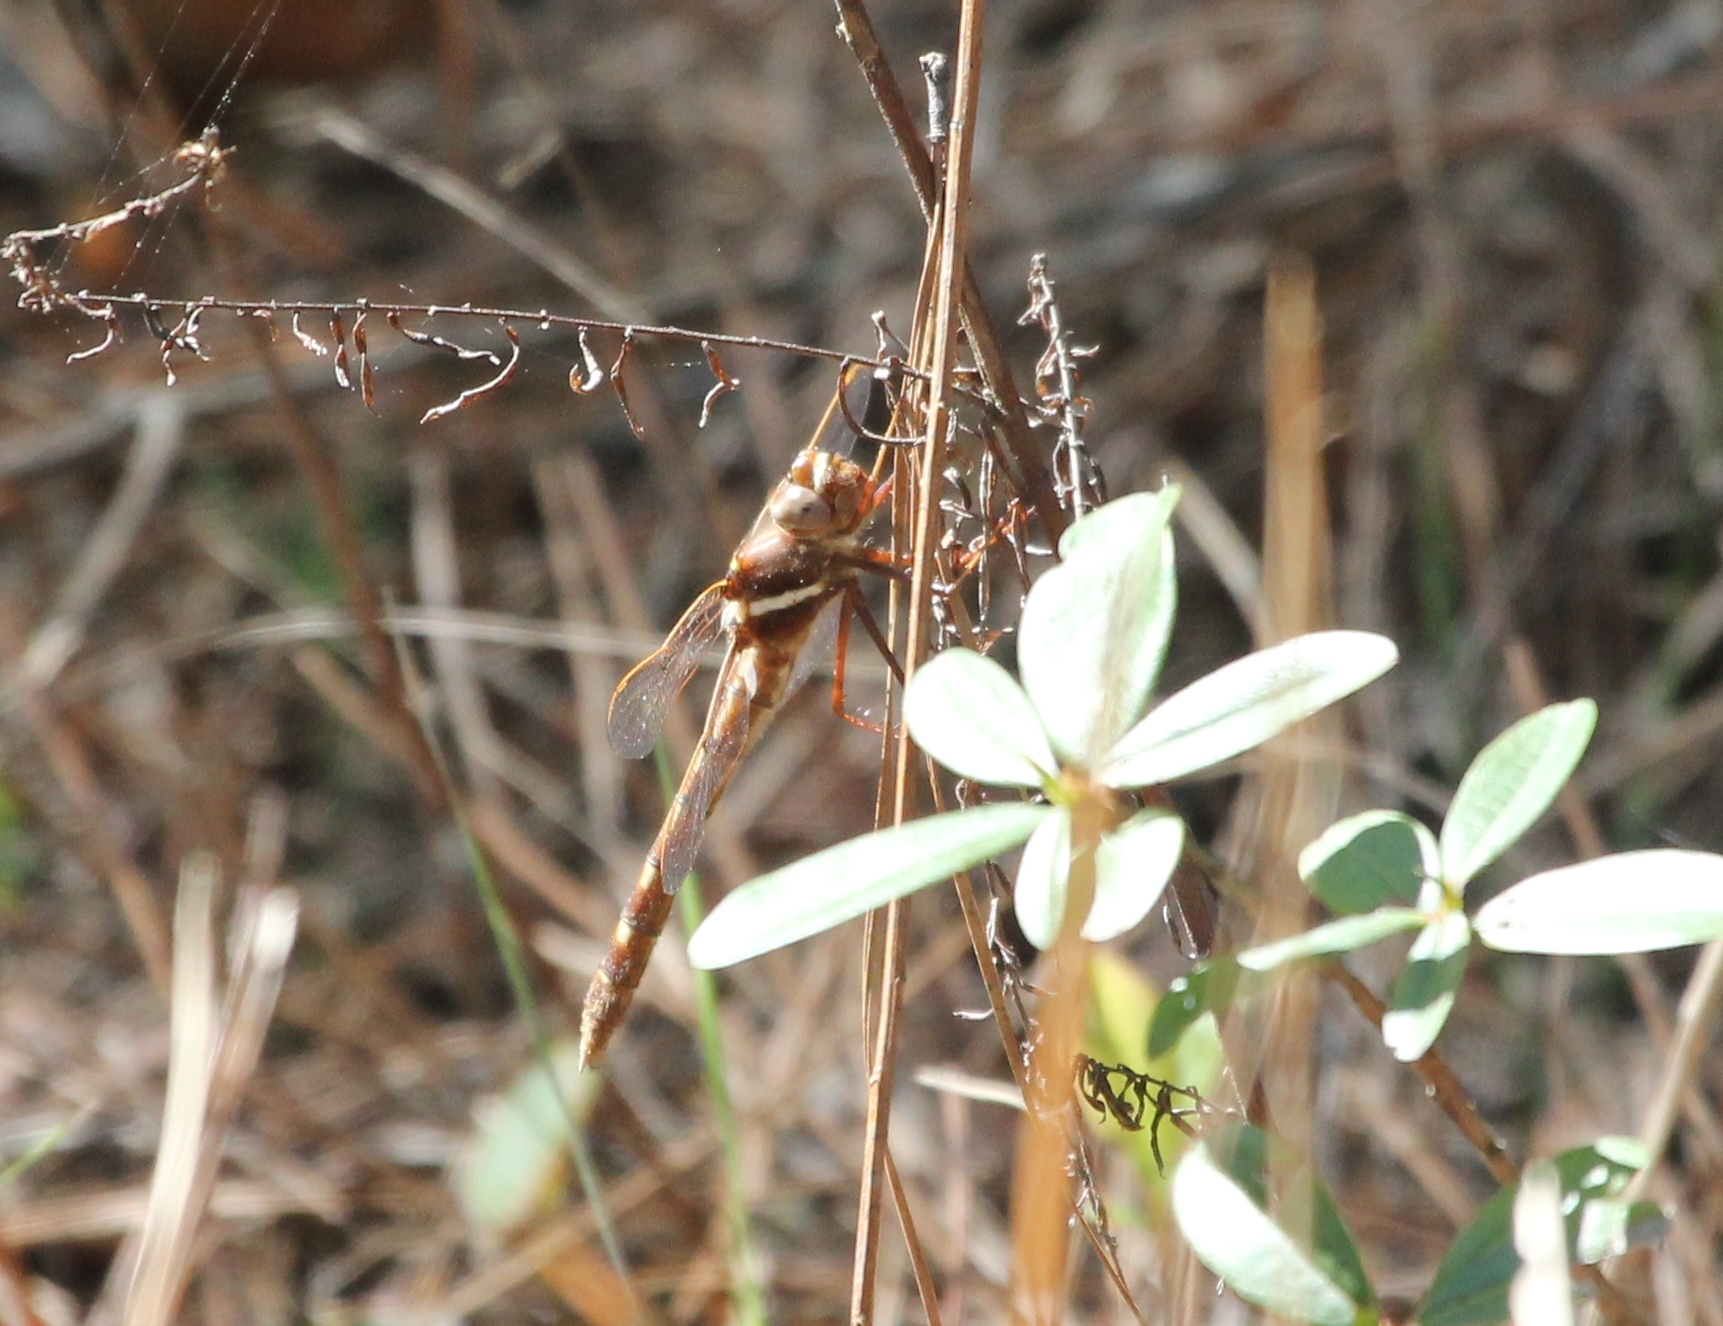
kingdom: Animalia
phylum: Arthropoda
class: Insecta
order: Odonata
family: Macromiidae
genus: Didymops
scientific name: Didymops transversa
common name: Stream cruiser
